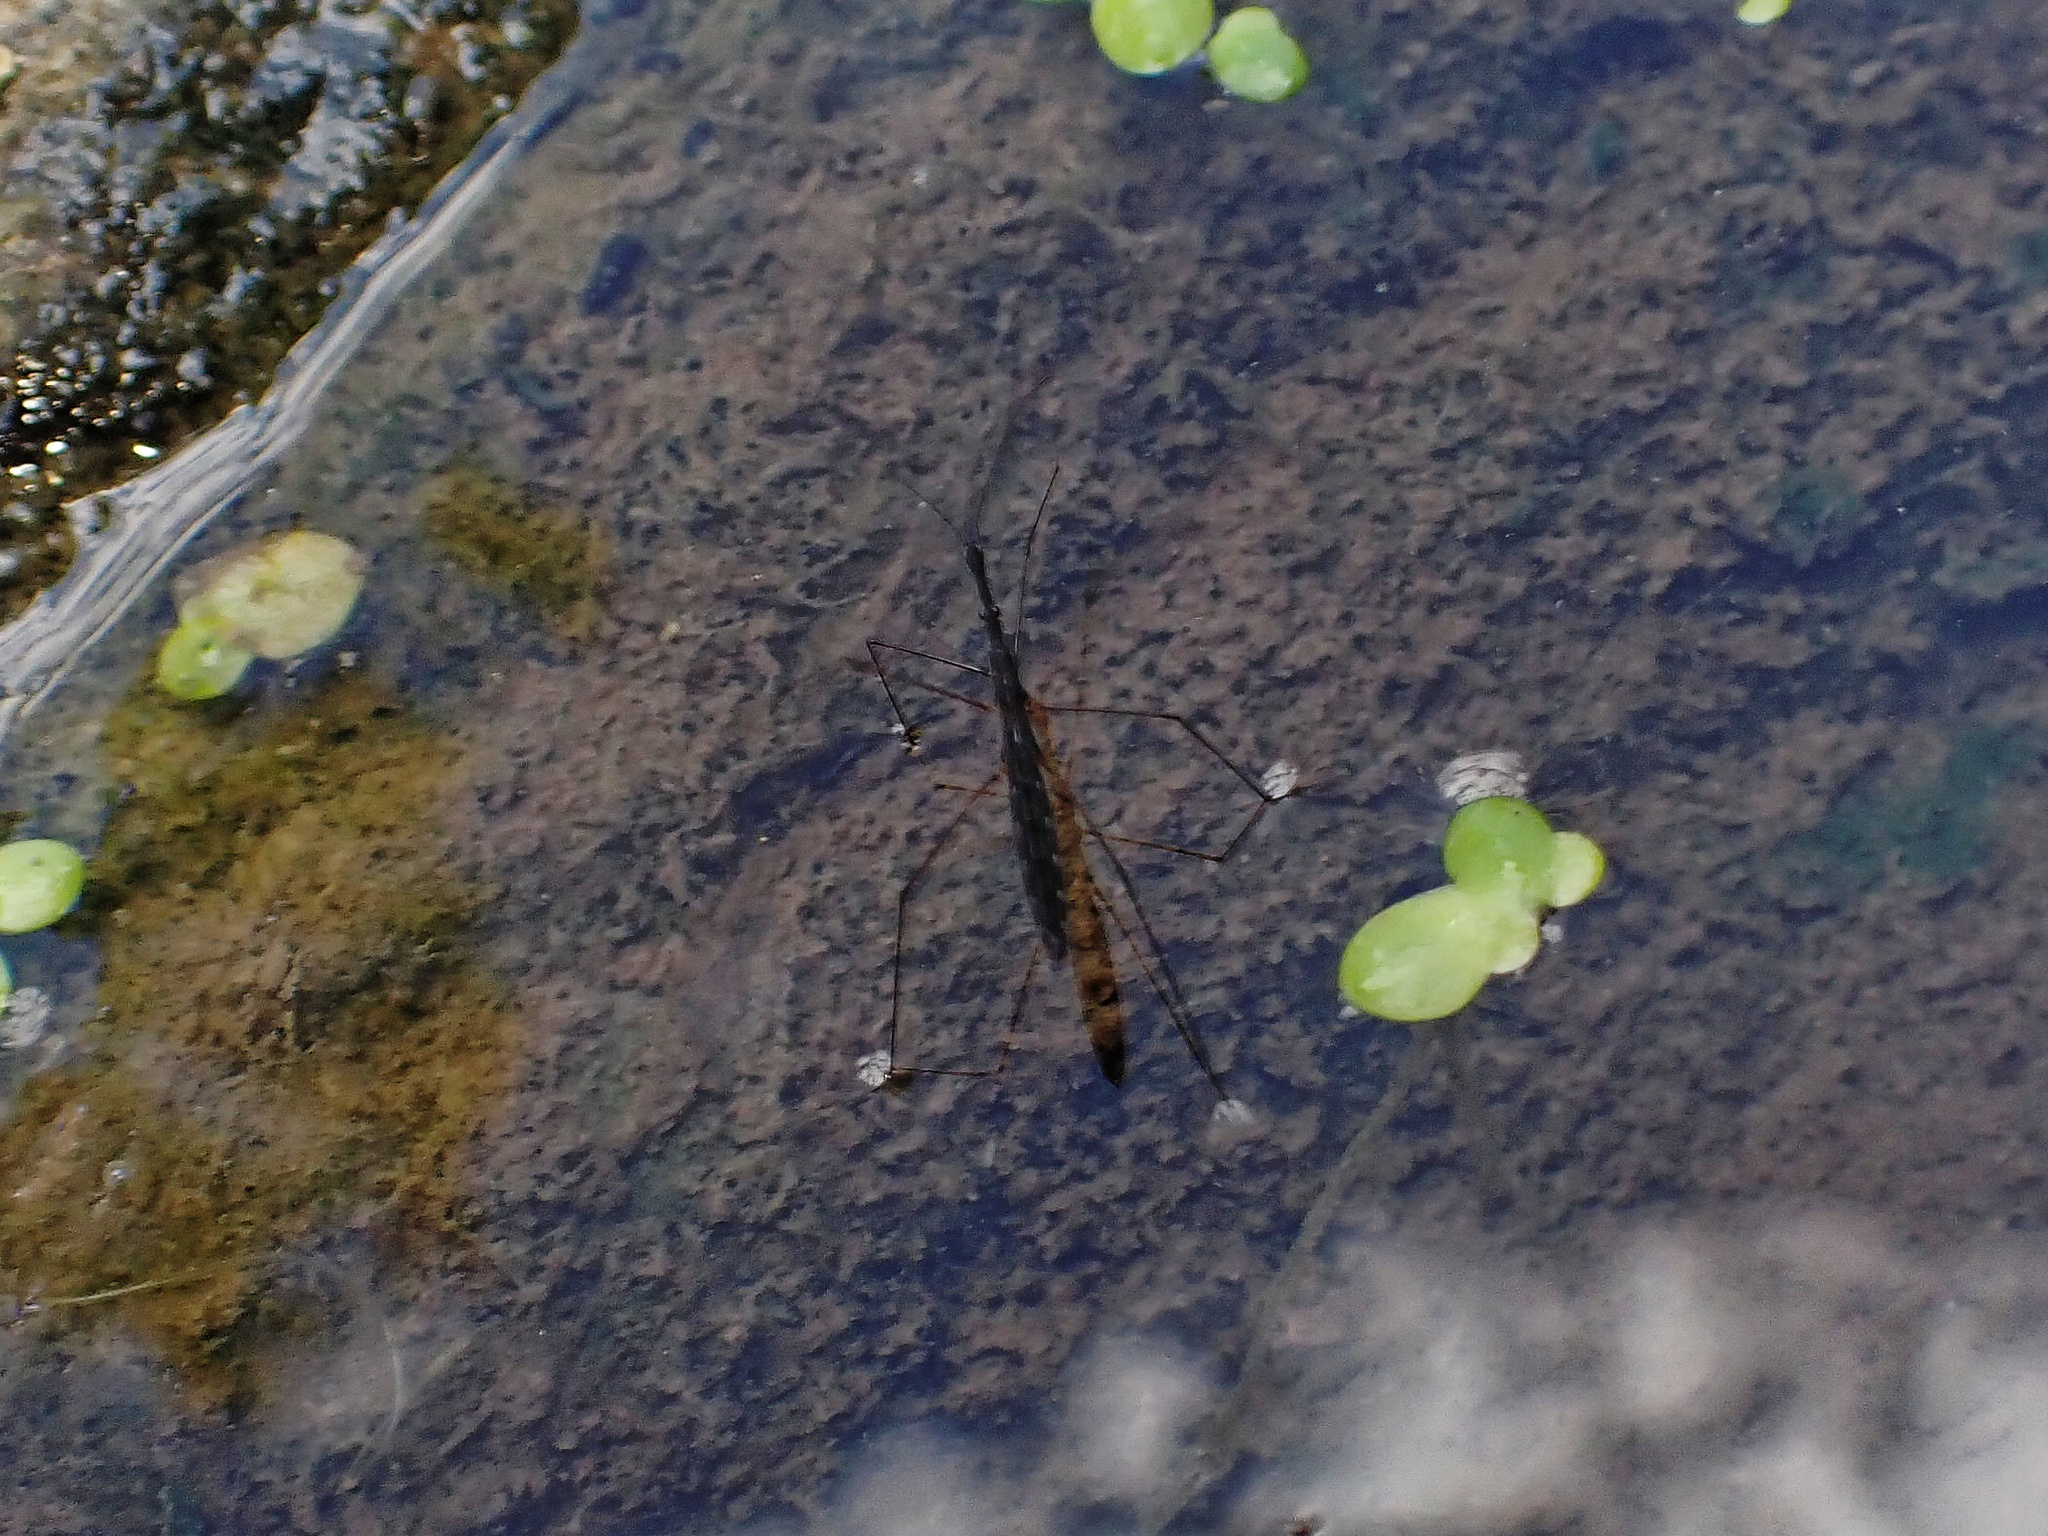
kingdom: Animalia
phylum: Arthropoda
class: Insecta
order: Hemiptera
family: Hydrometridae
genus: Hydrometra
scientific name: Hydrometra stagnorum
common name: Water measurer
